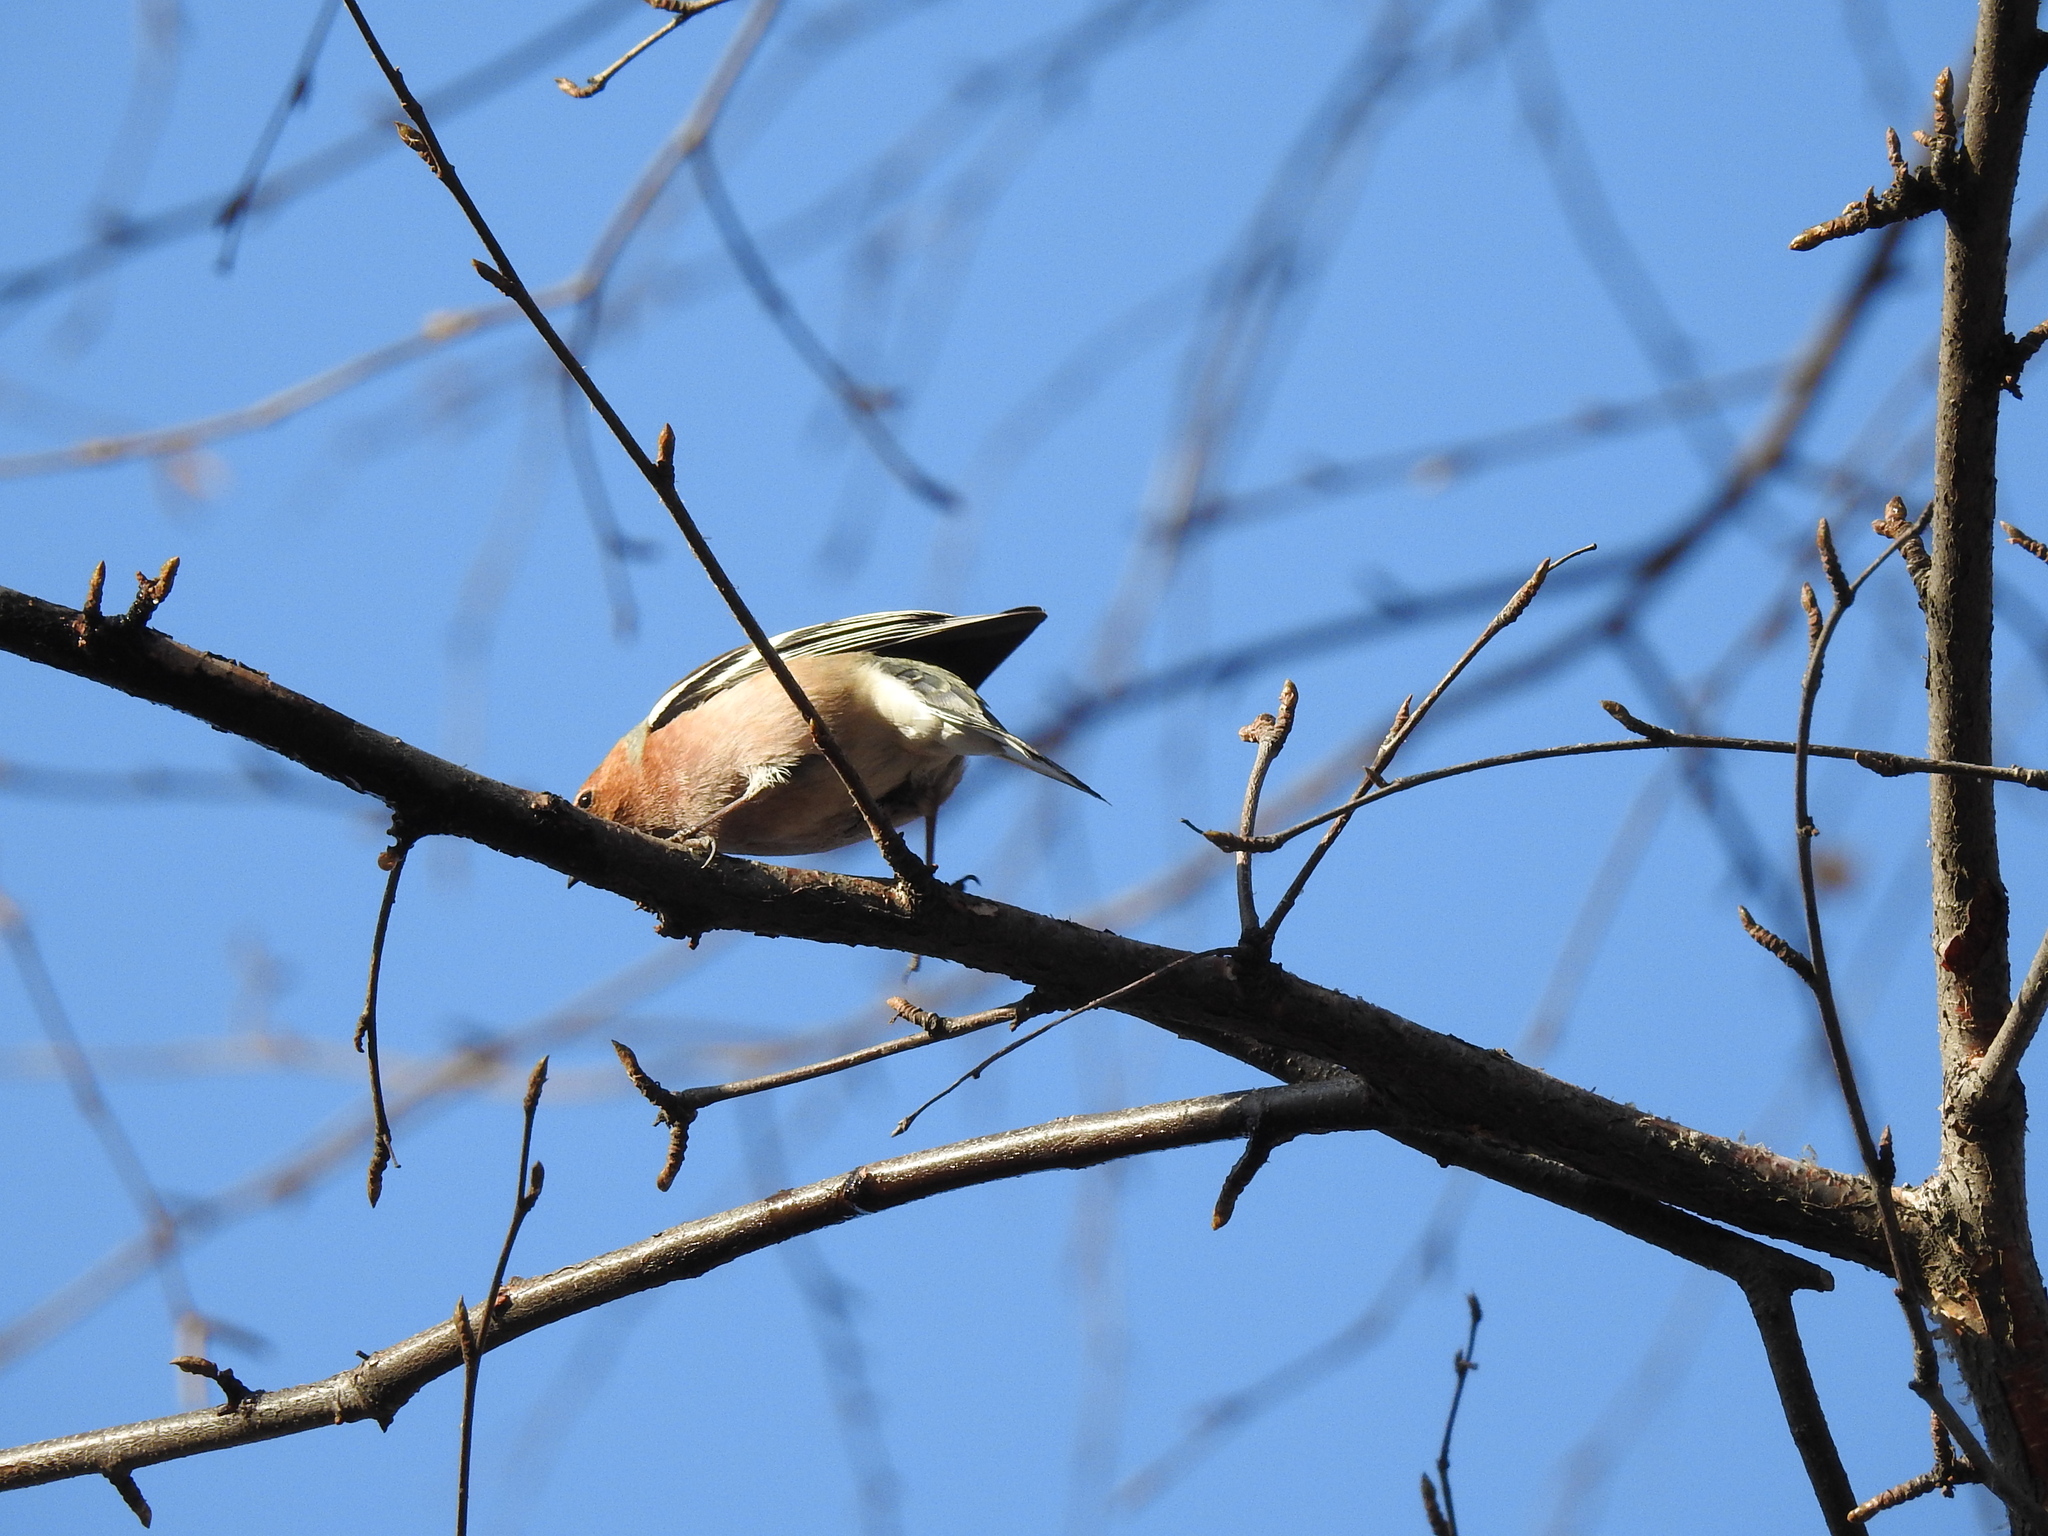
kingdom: Animalia
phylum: Chordata
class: Aves
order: Passeriformes
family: Fringillidae
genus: Fringilla
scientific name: Fringilla coelebs
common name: Common chaffinch
